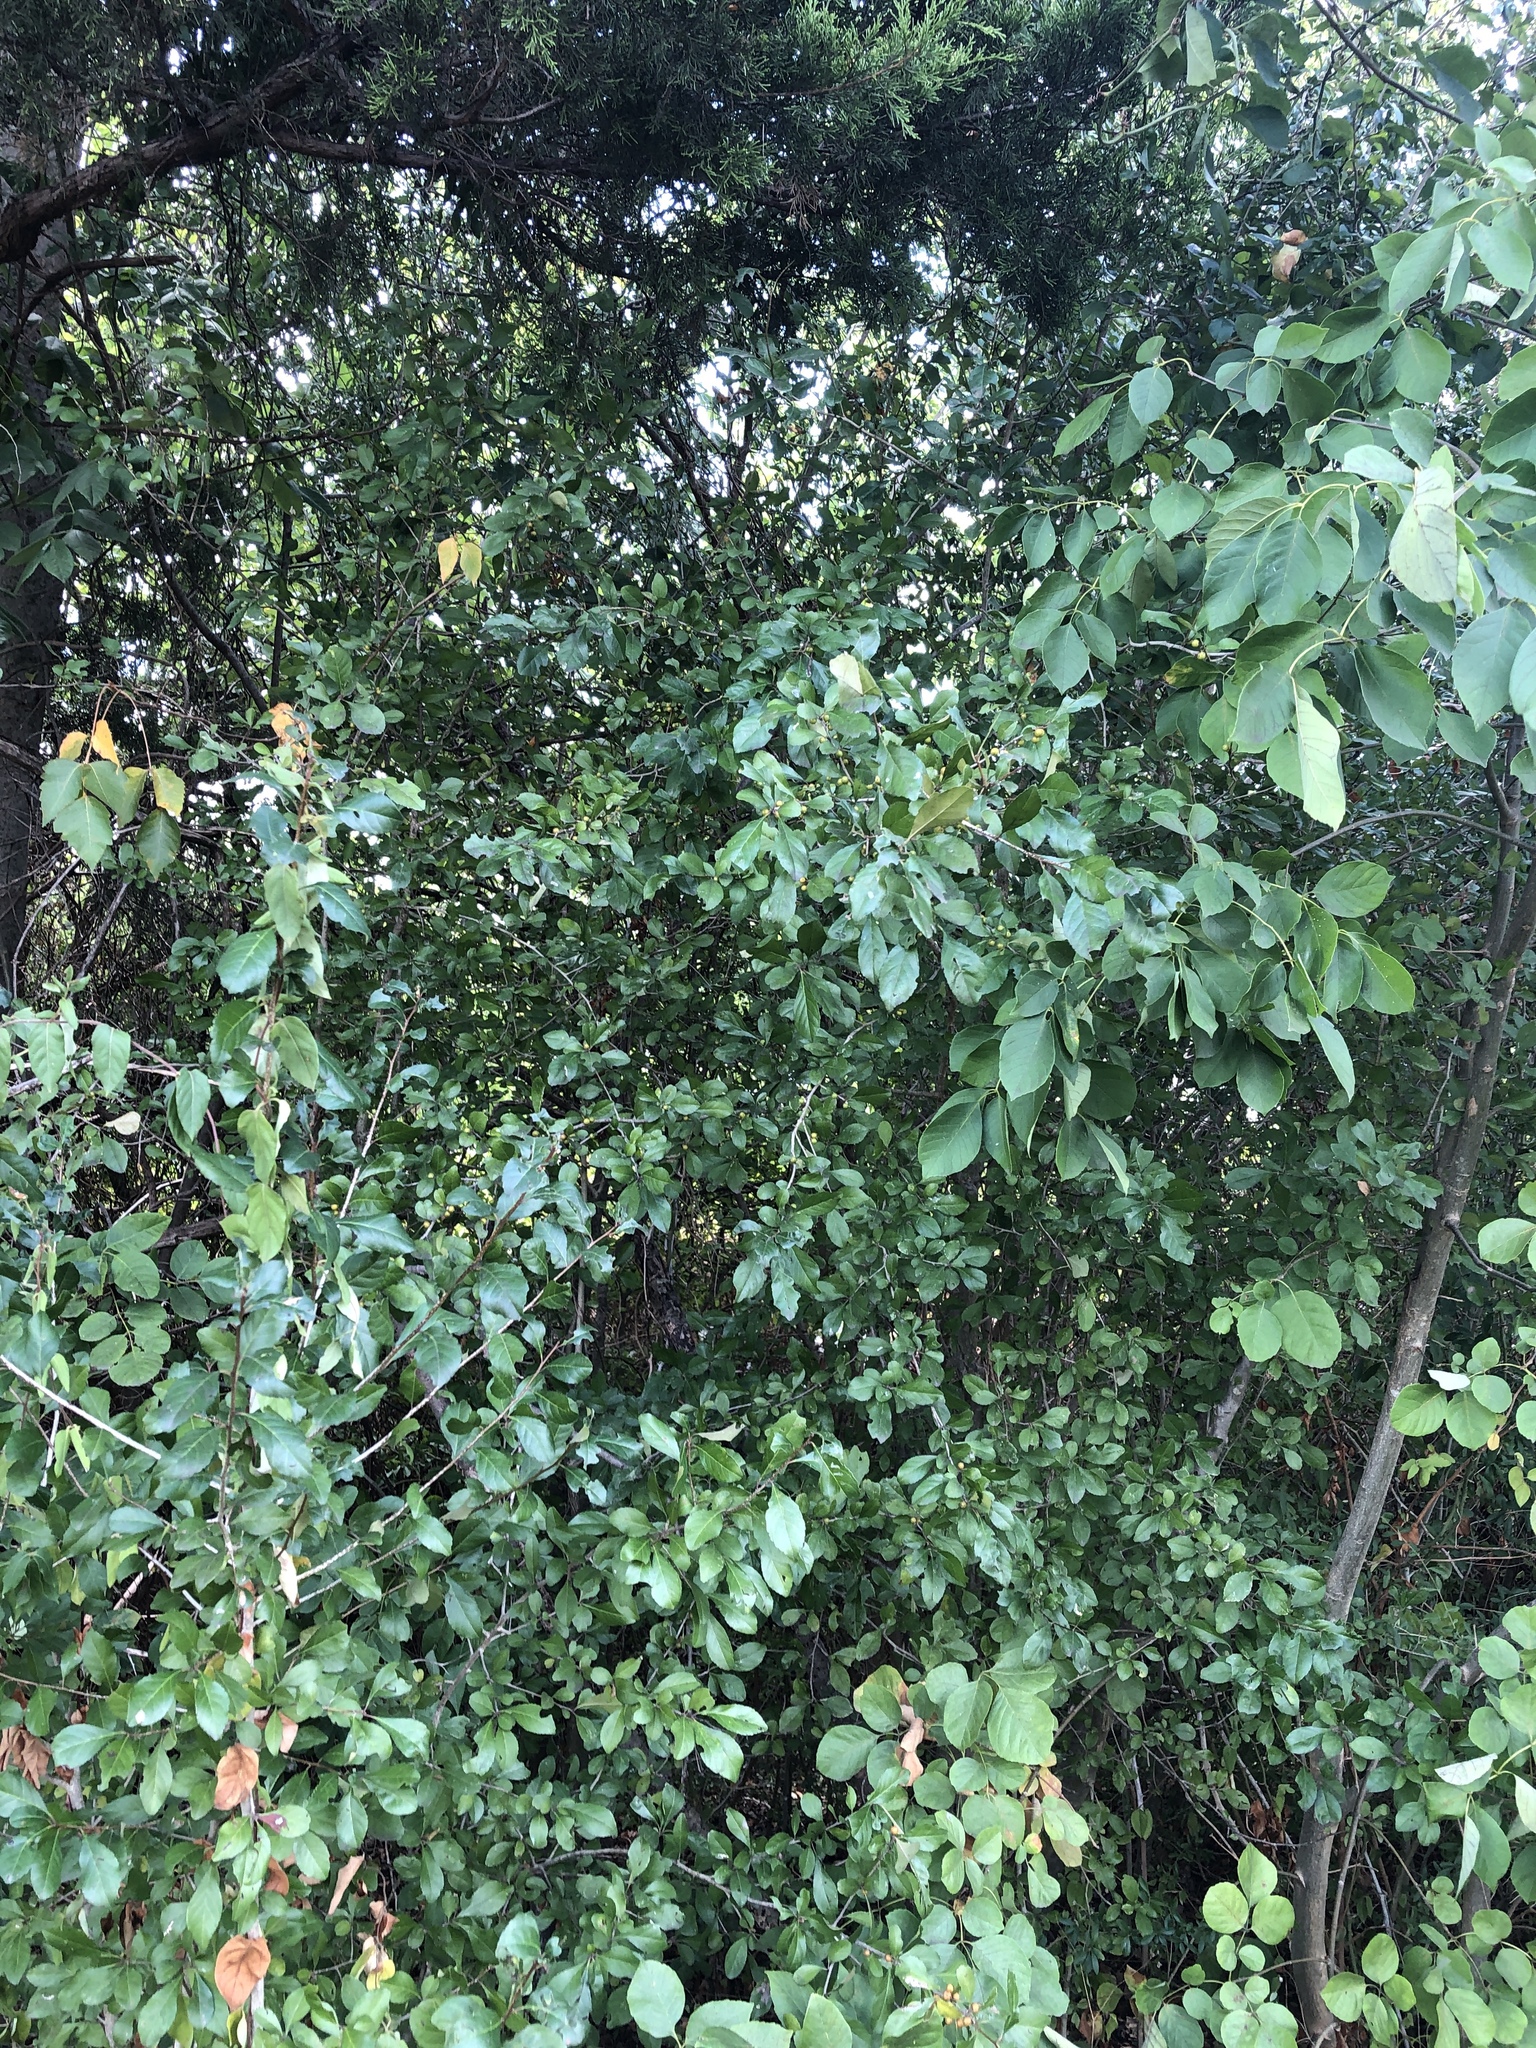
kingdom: Plantae
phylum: Tracheophyta
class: Magnoliopsida
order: Aquifoliales
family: Aquifoliaceae
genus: Ilex
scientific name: Ilex decidua
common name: Possum-haw
